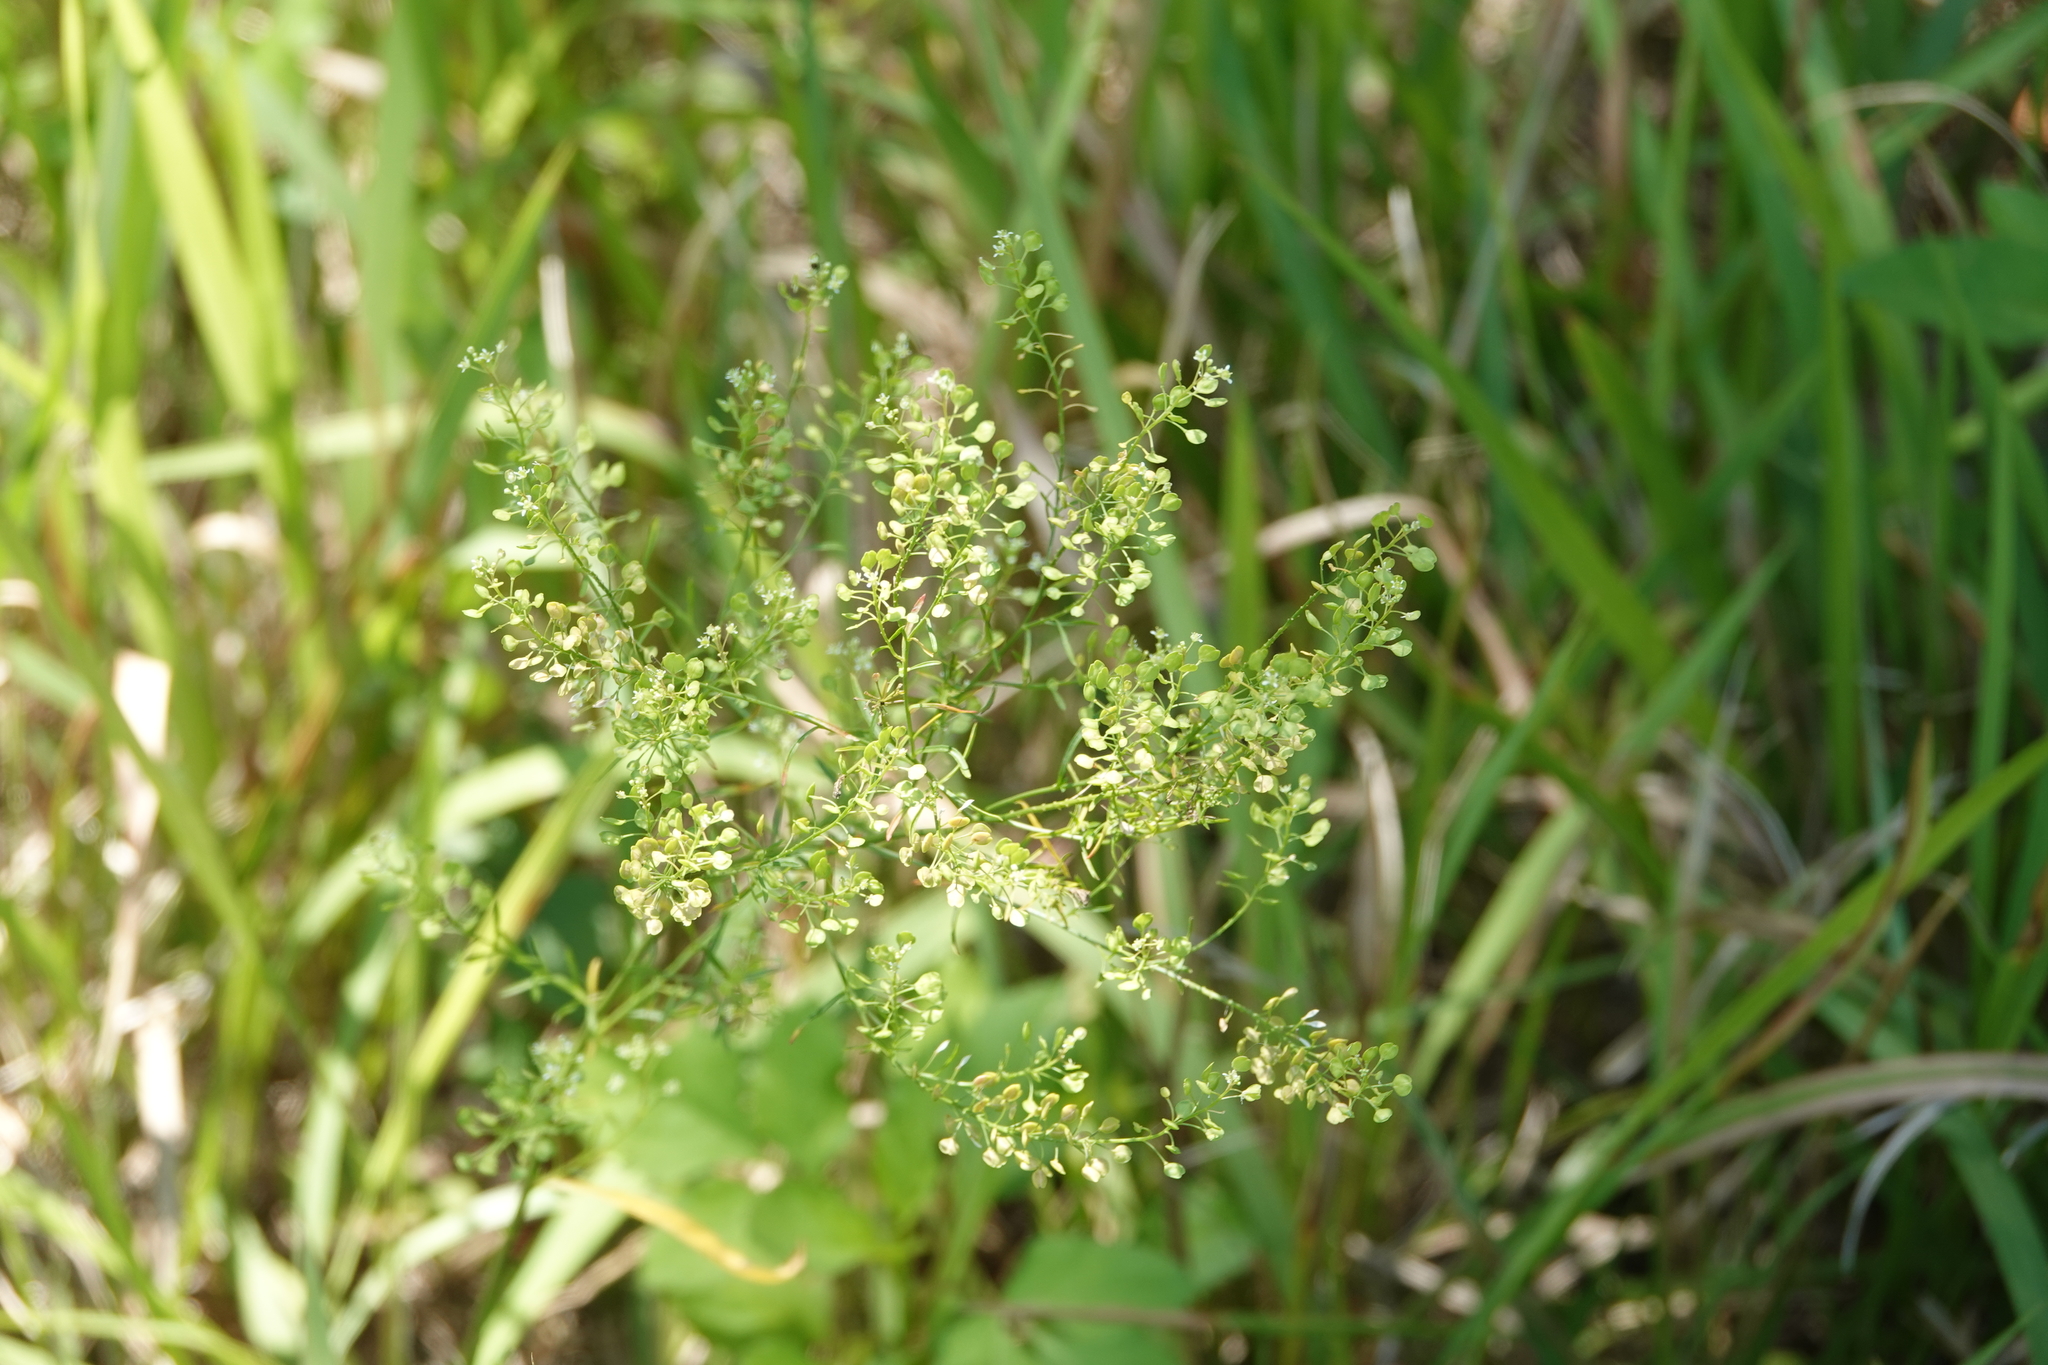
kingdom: Plantae
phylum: Tracheophyta
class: Magnoliopsida
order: Brassicales
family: Brassicaceae
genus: Lepidium
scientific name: Lepidium virginicum
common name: Least pepperwort
